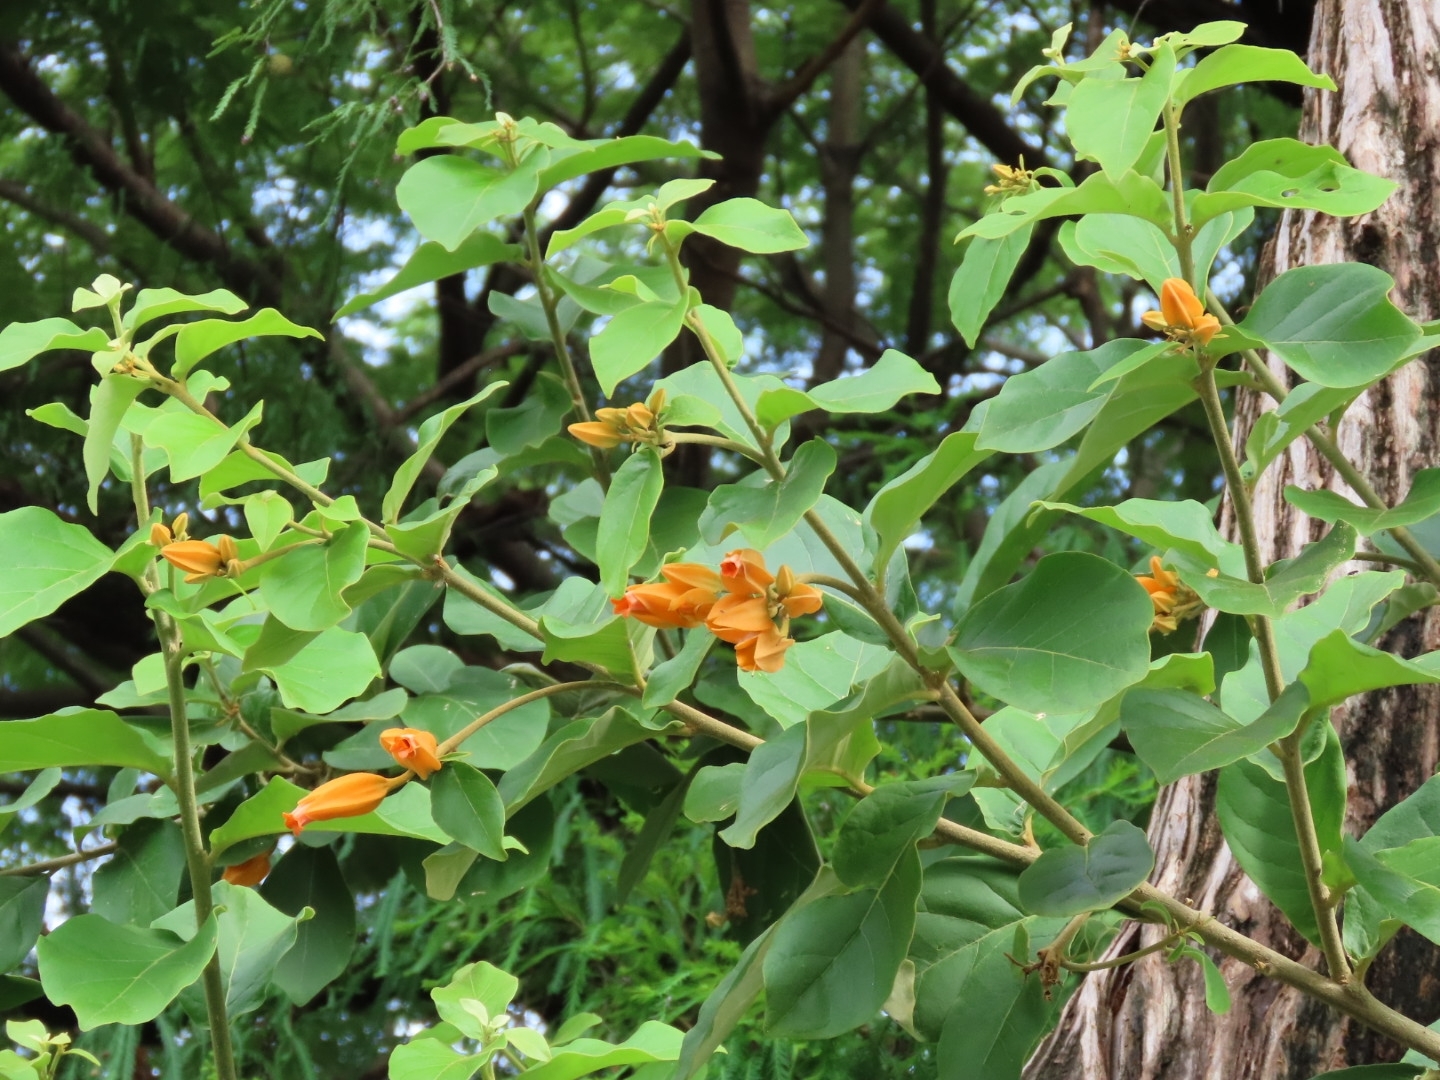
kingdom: Plantae
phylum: Tracheophyta
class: Magnoliopsida
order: Solanales
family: Solanaceae
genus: Juanulloa
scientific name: Juanulloa mexicana
